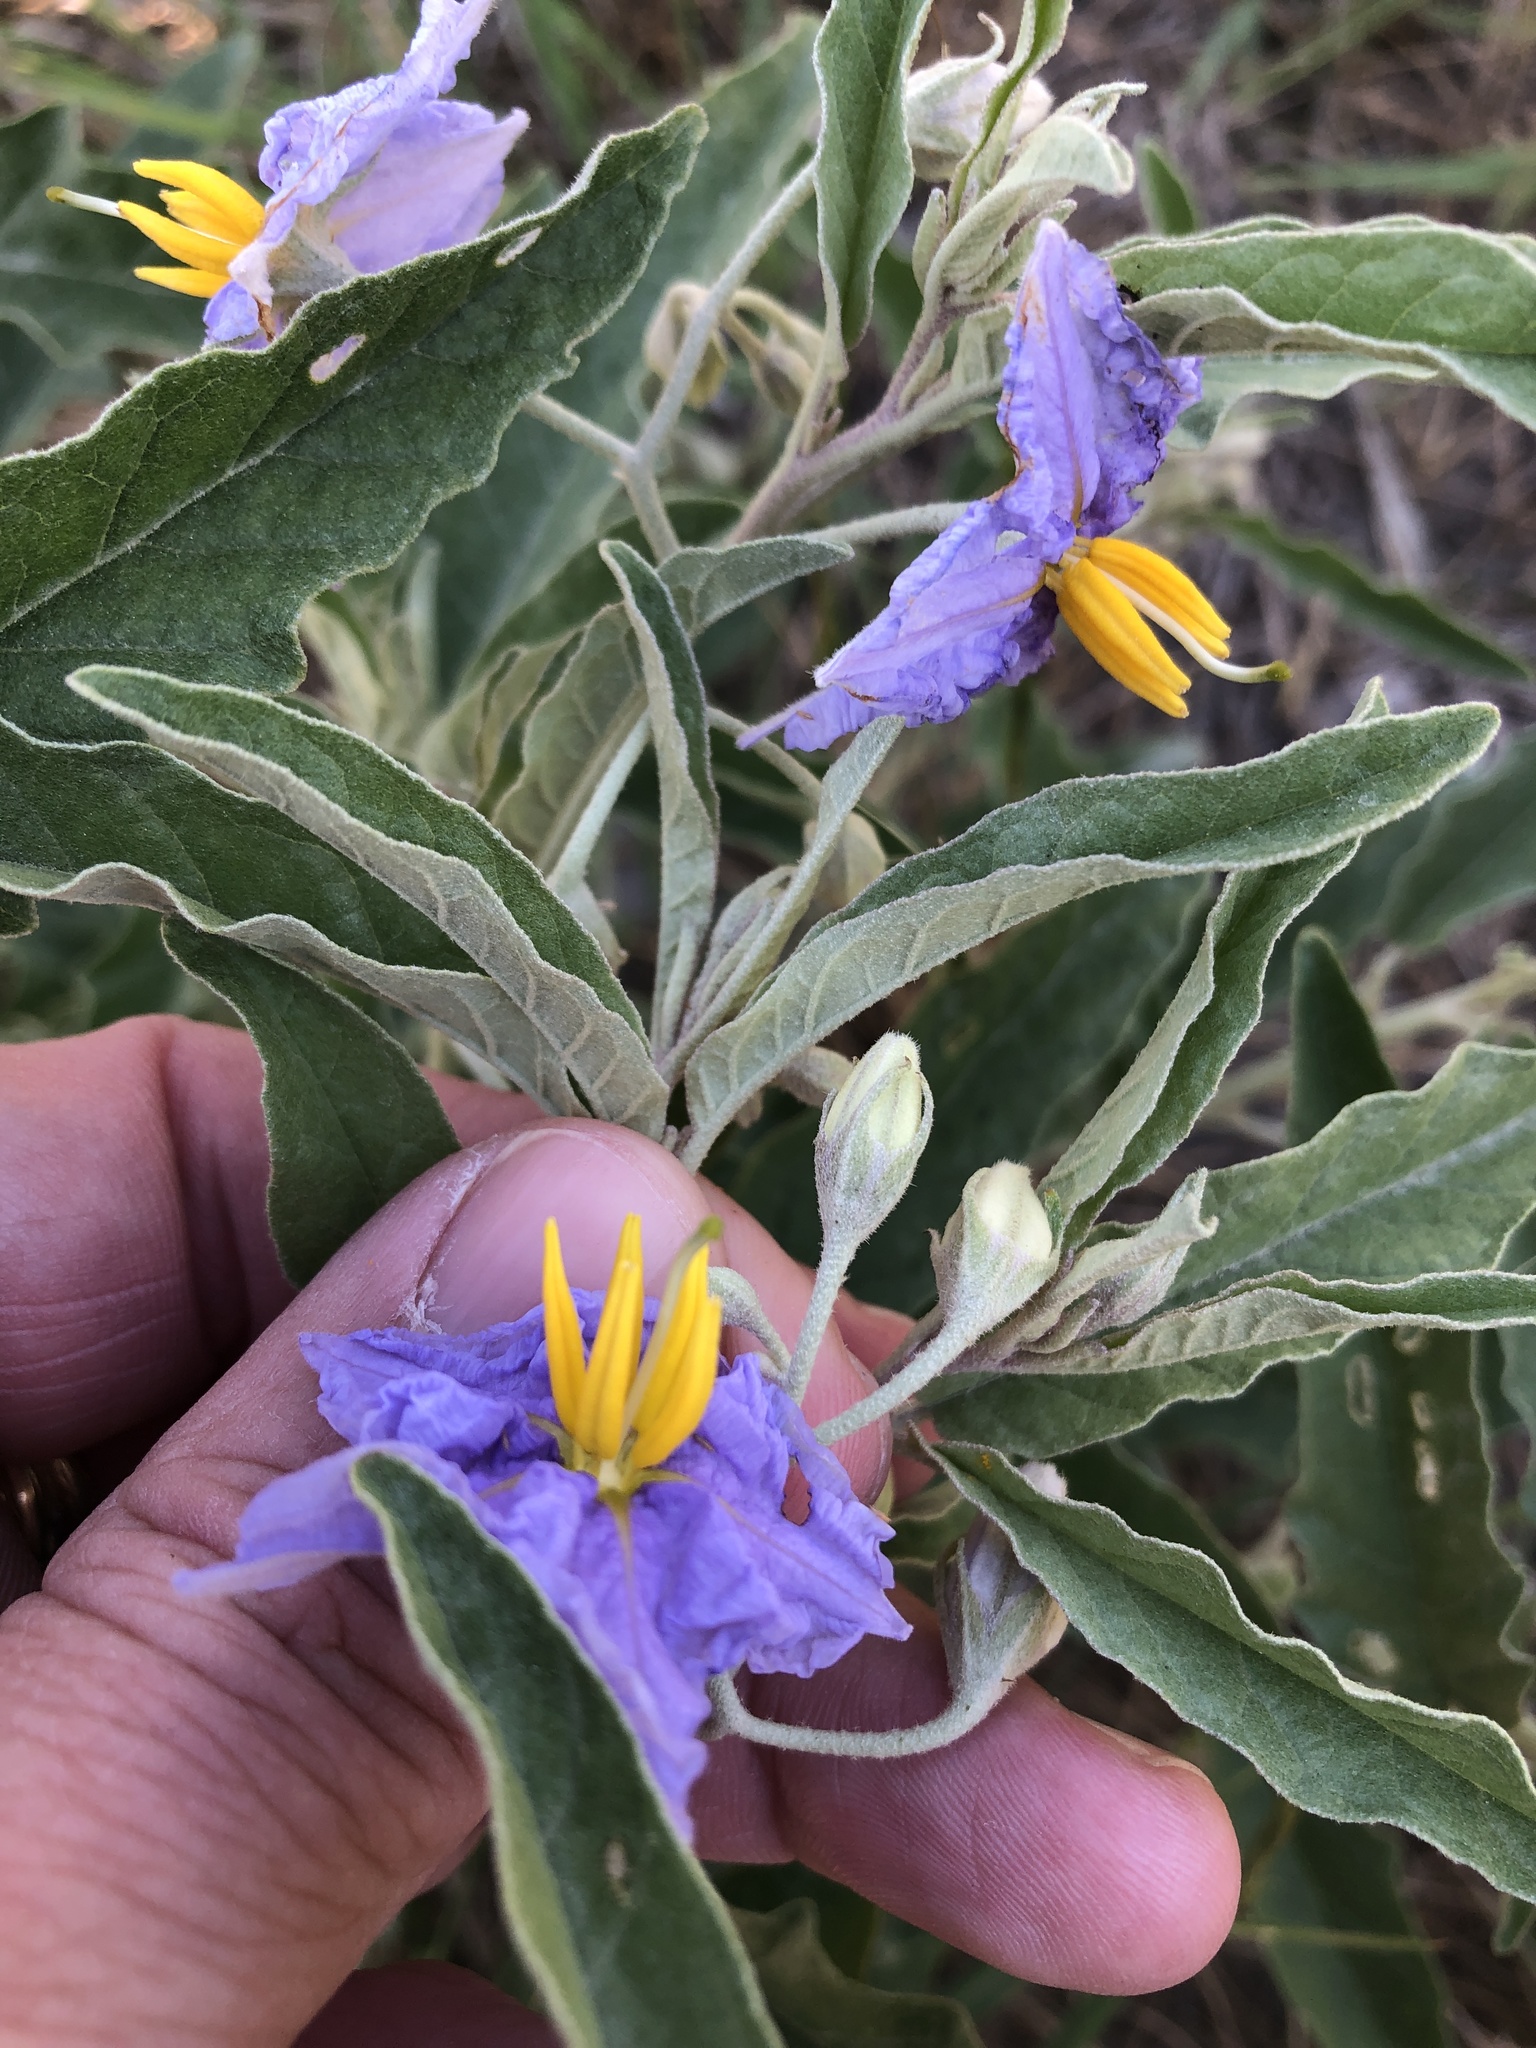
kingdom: Plantae
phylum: Tracheophyta
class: Magnoliopsida
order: Solanales
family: Solanaceae
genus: Solanum
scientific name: Solanum elaeagnifolium
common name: Silverleaf nightshade
